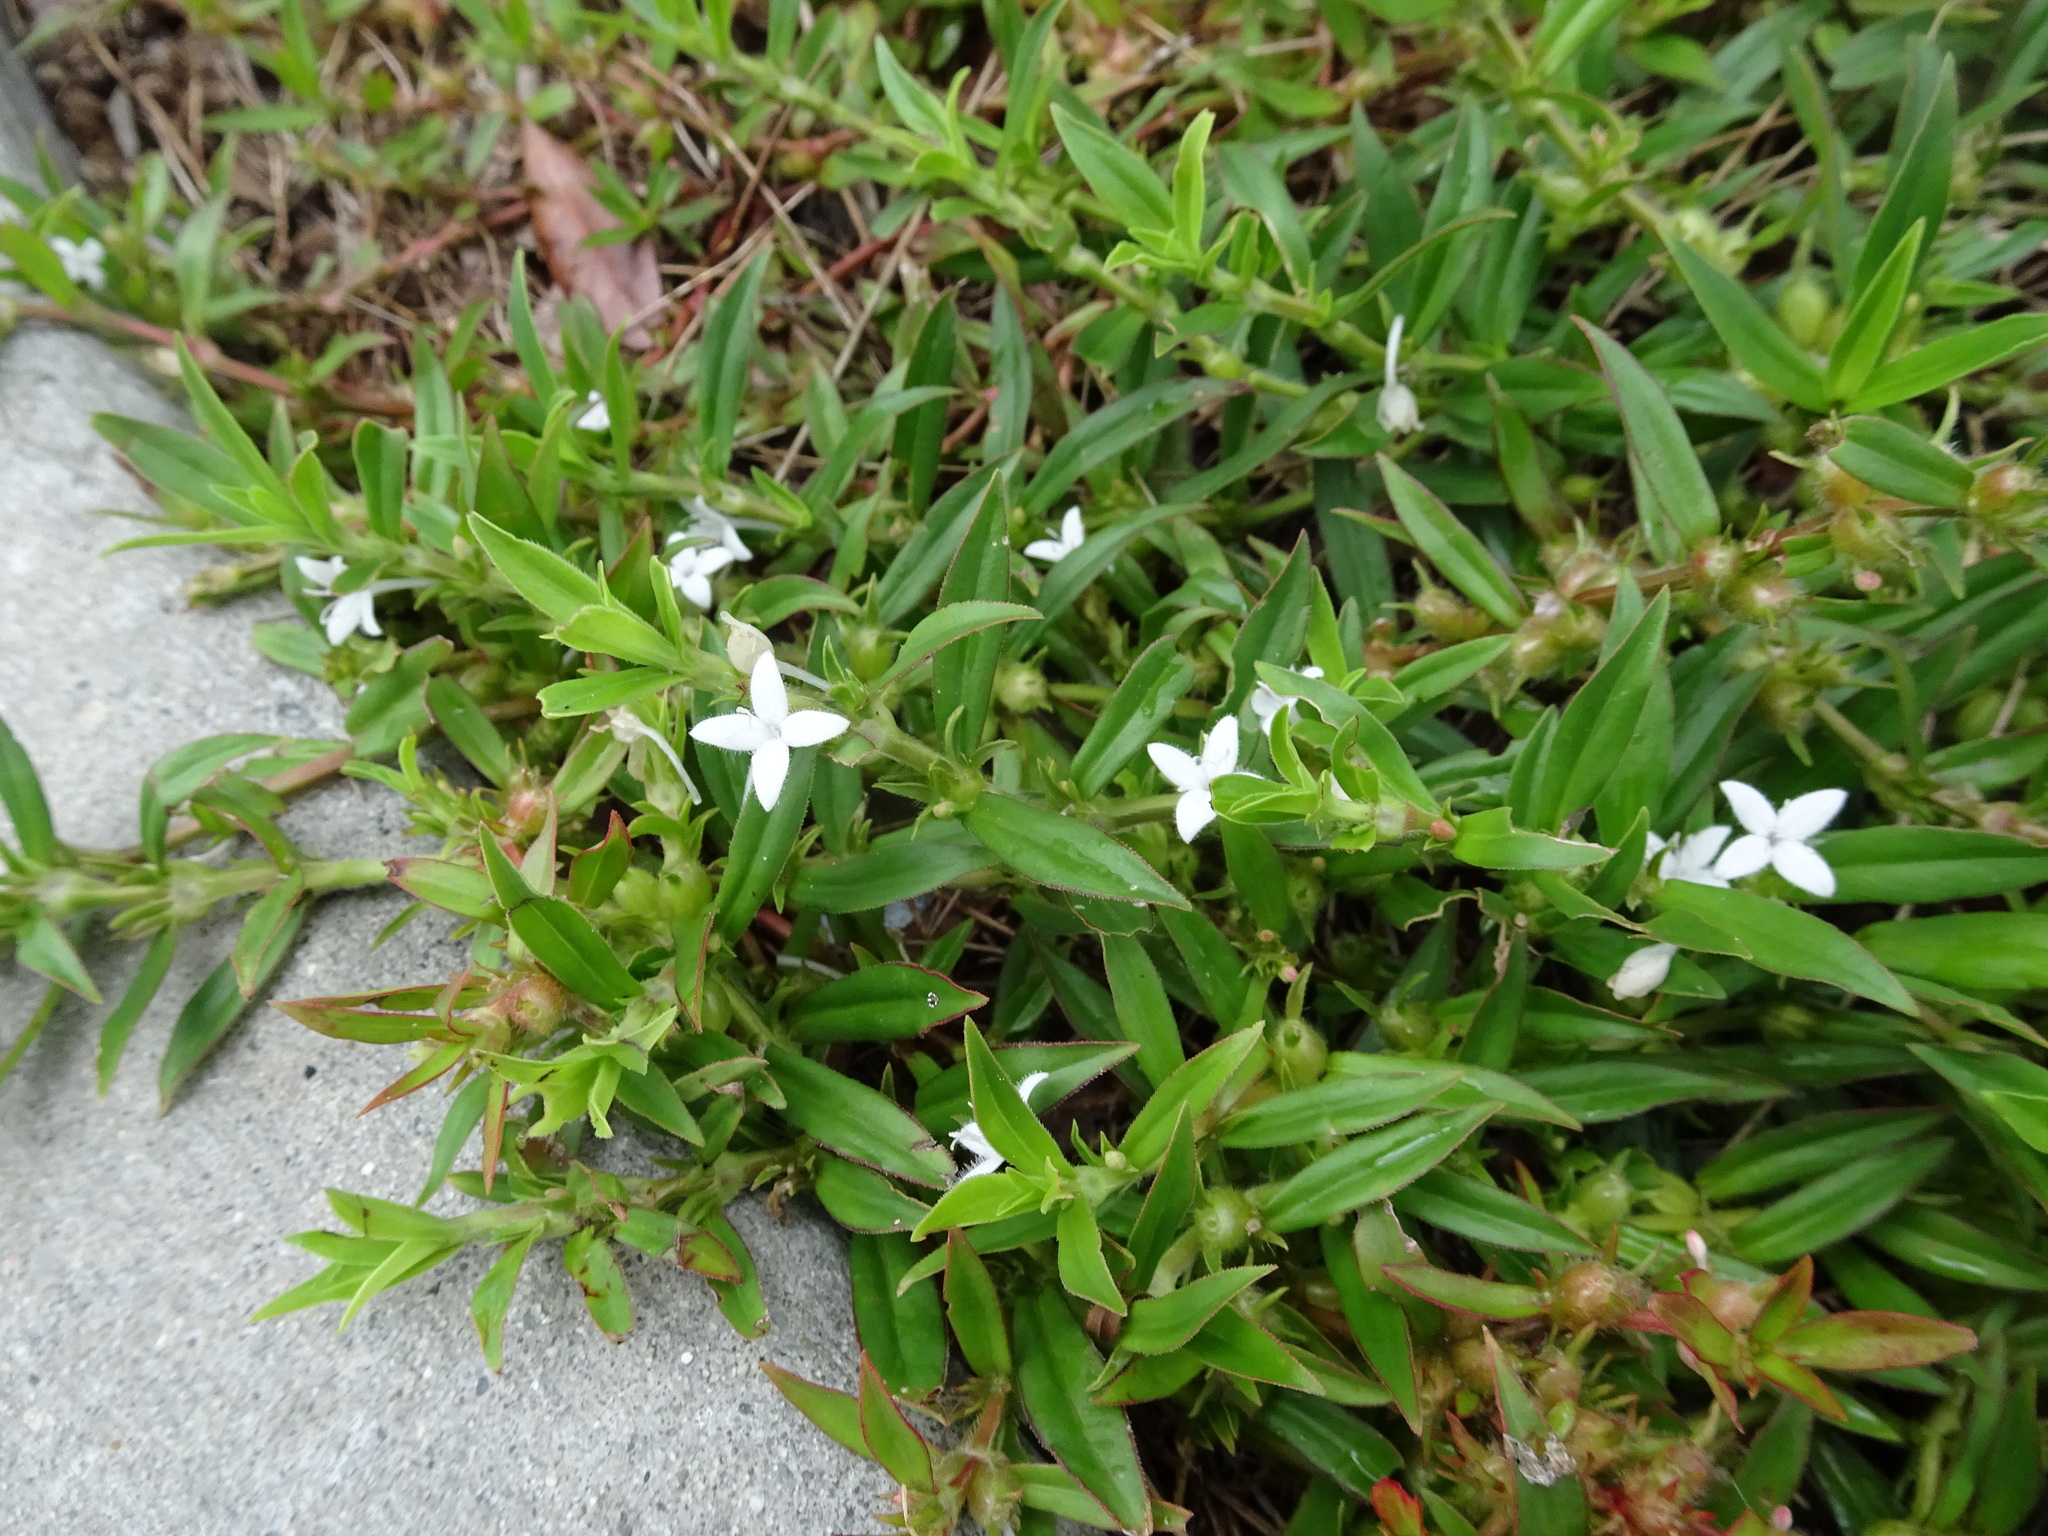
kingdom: Plantae
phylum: Tracheophyta
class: Magnoliopsida
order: Gentianales
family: Rubiaceae
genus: Diodia
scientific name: Diodia virginiana
